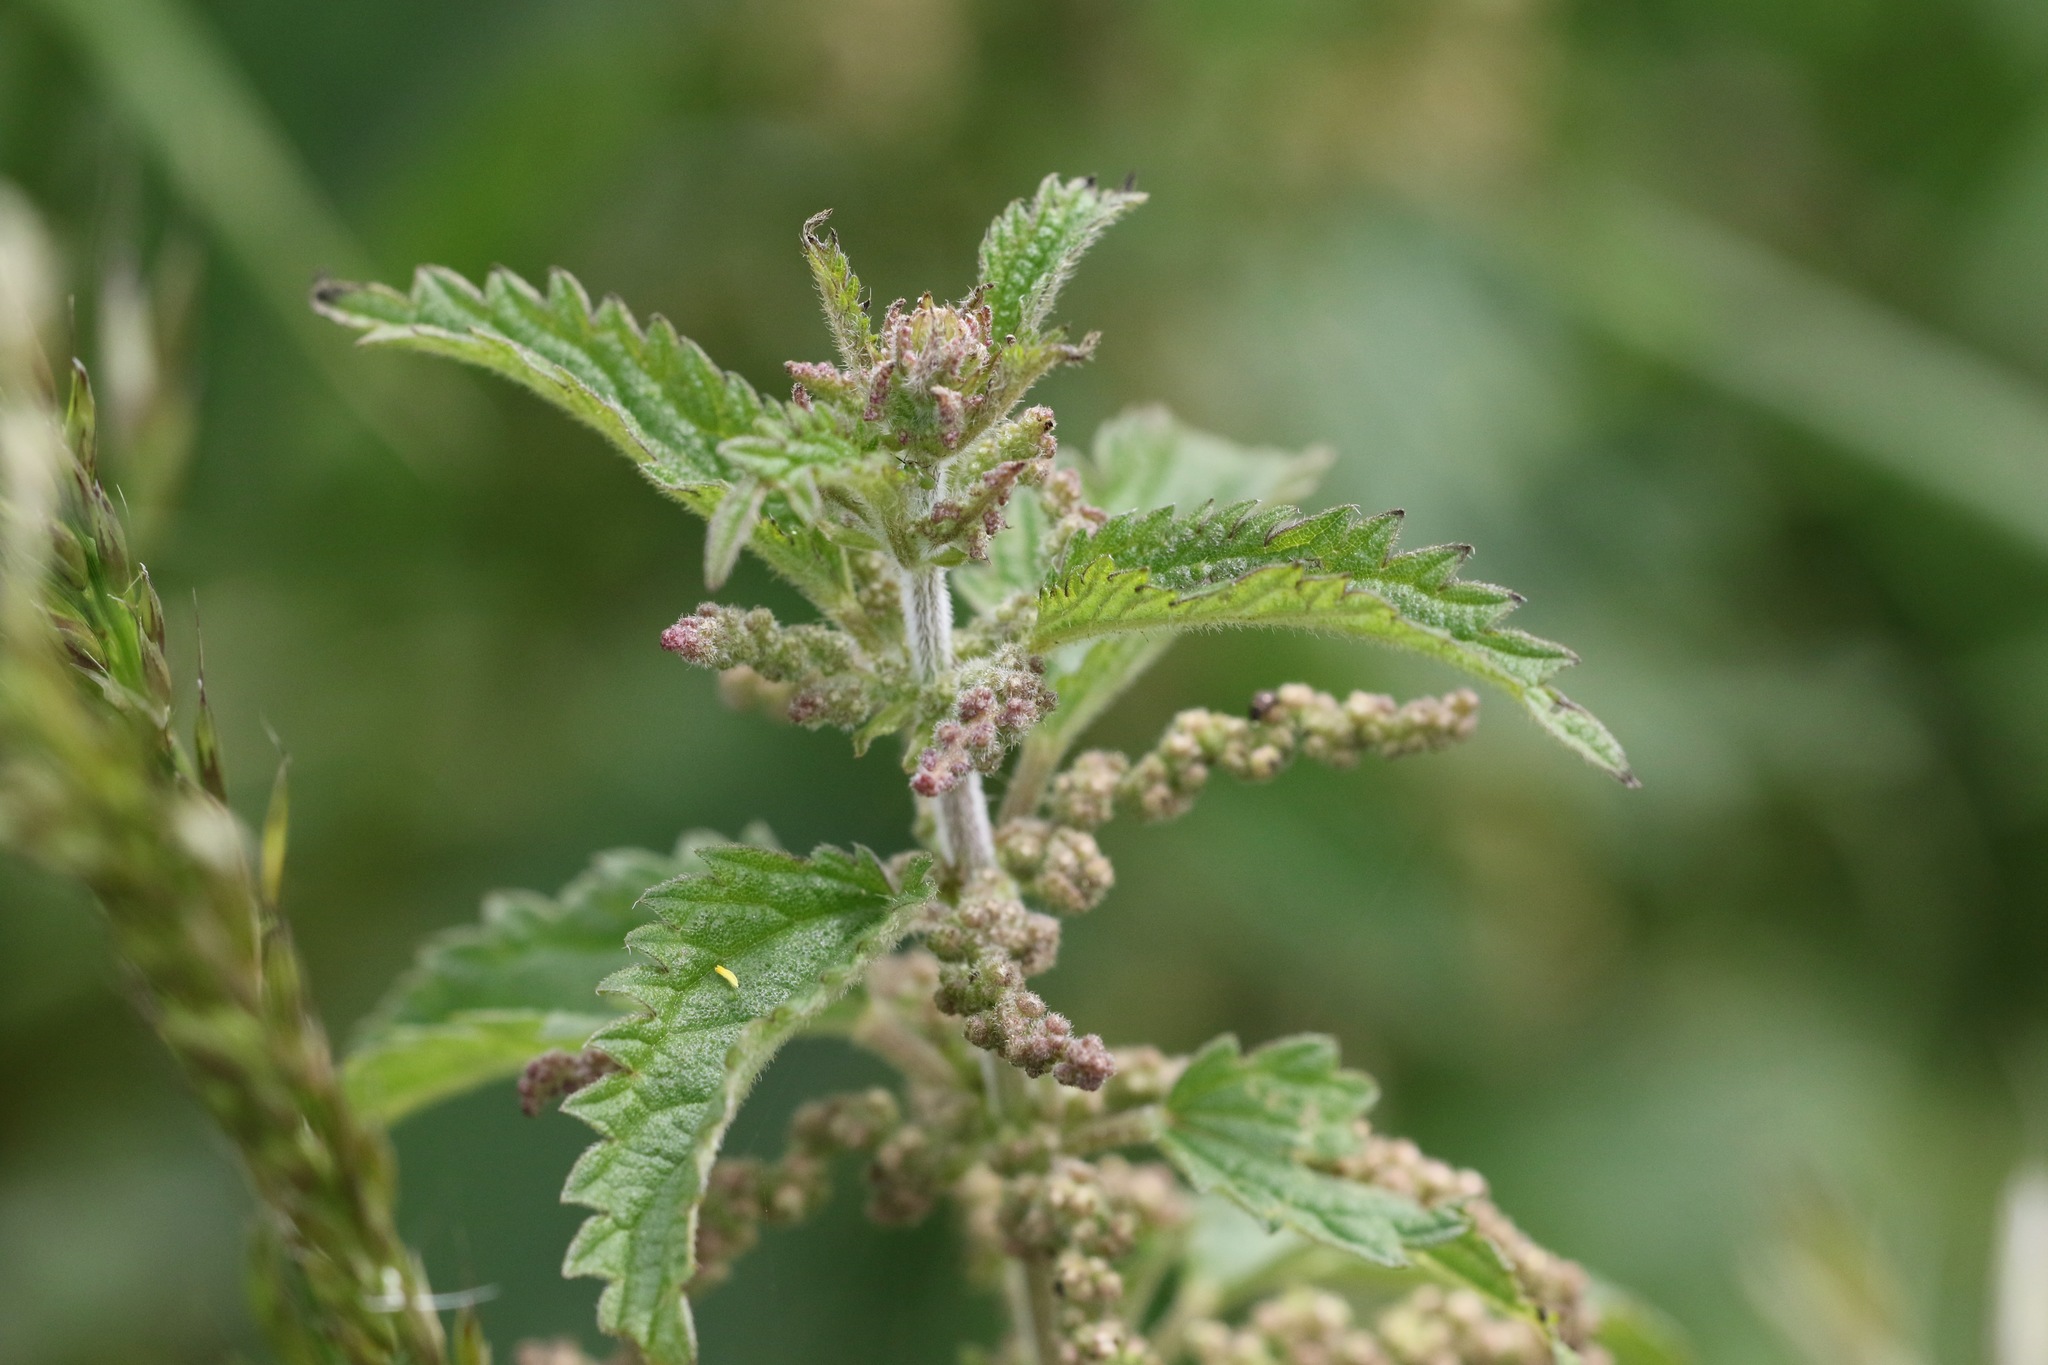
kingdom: Plantae
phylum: Tracheophyta
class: Magnoliopsida
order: Rosales
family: Urticaceae
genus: Urtica
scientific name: Urtica dioica
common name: Common nettle
